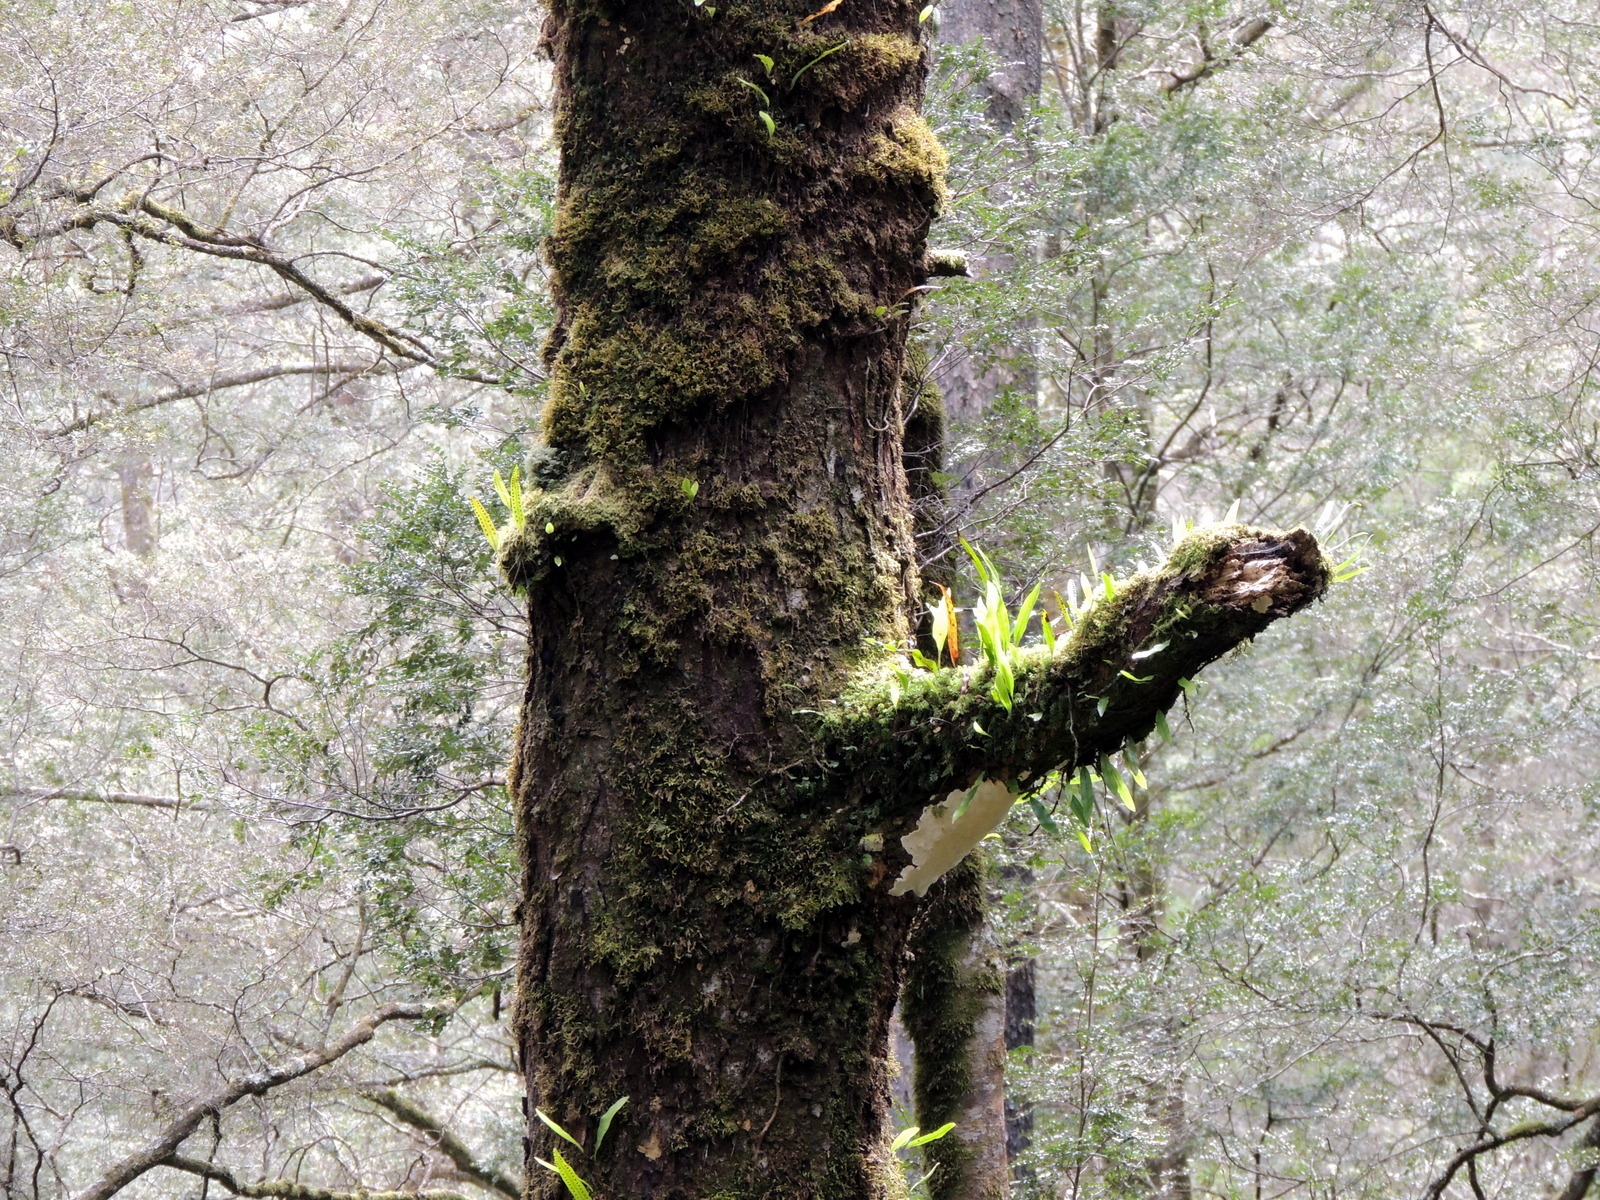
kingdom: Plantae
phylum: Tracheophyta
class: Polypodiopsida
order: Polypodiales
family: Polypodiaceae
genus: Lecanopteris
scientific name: Lecanopteris pustulata
